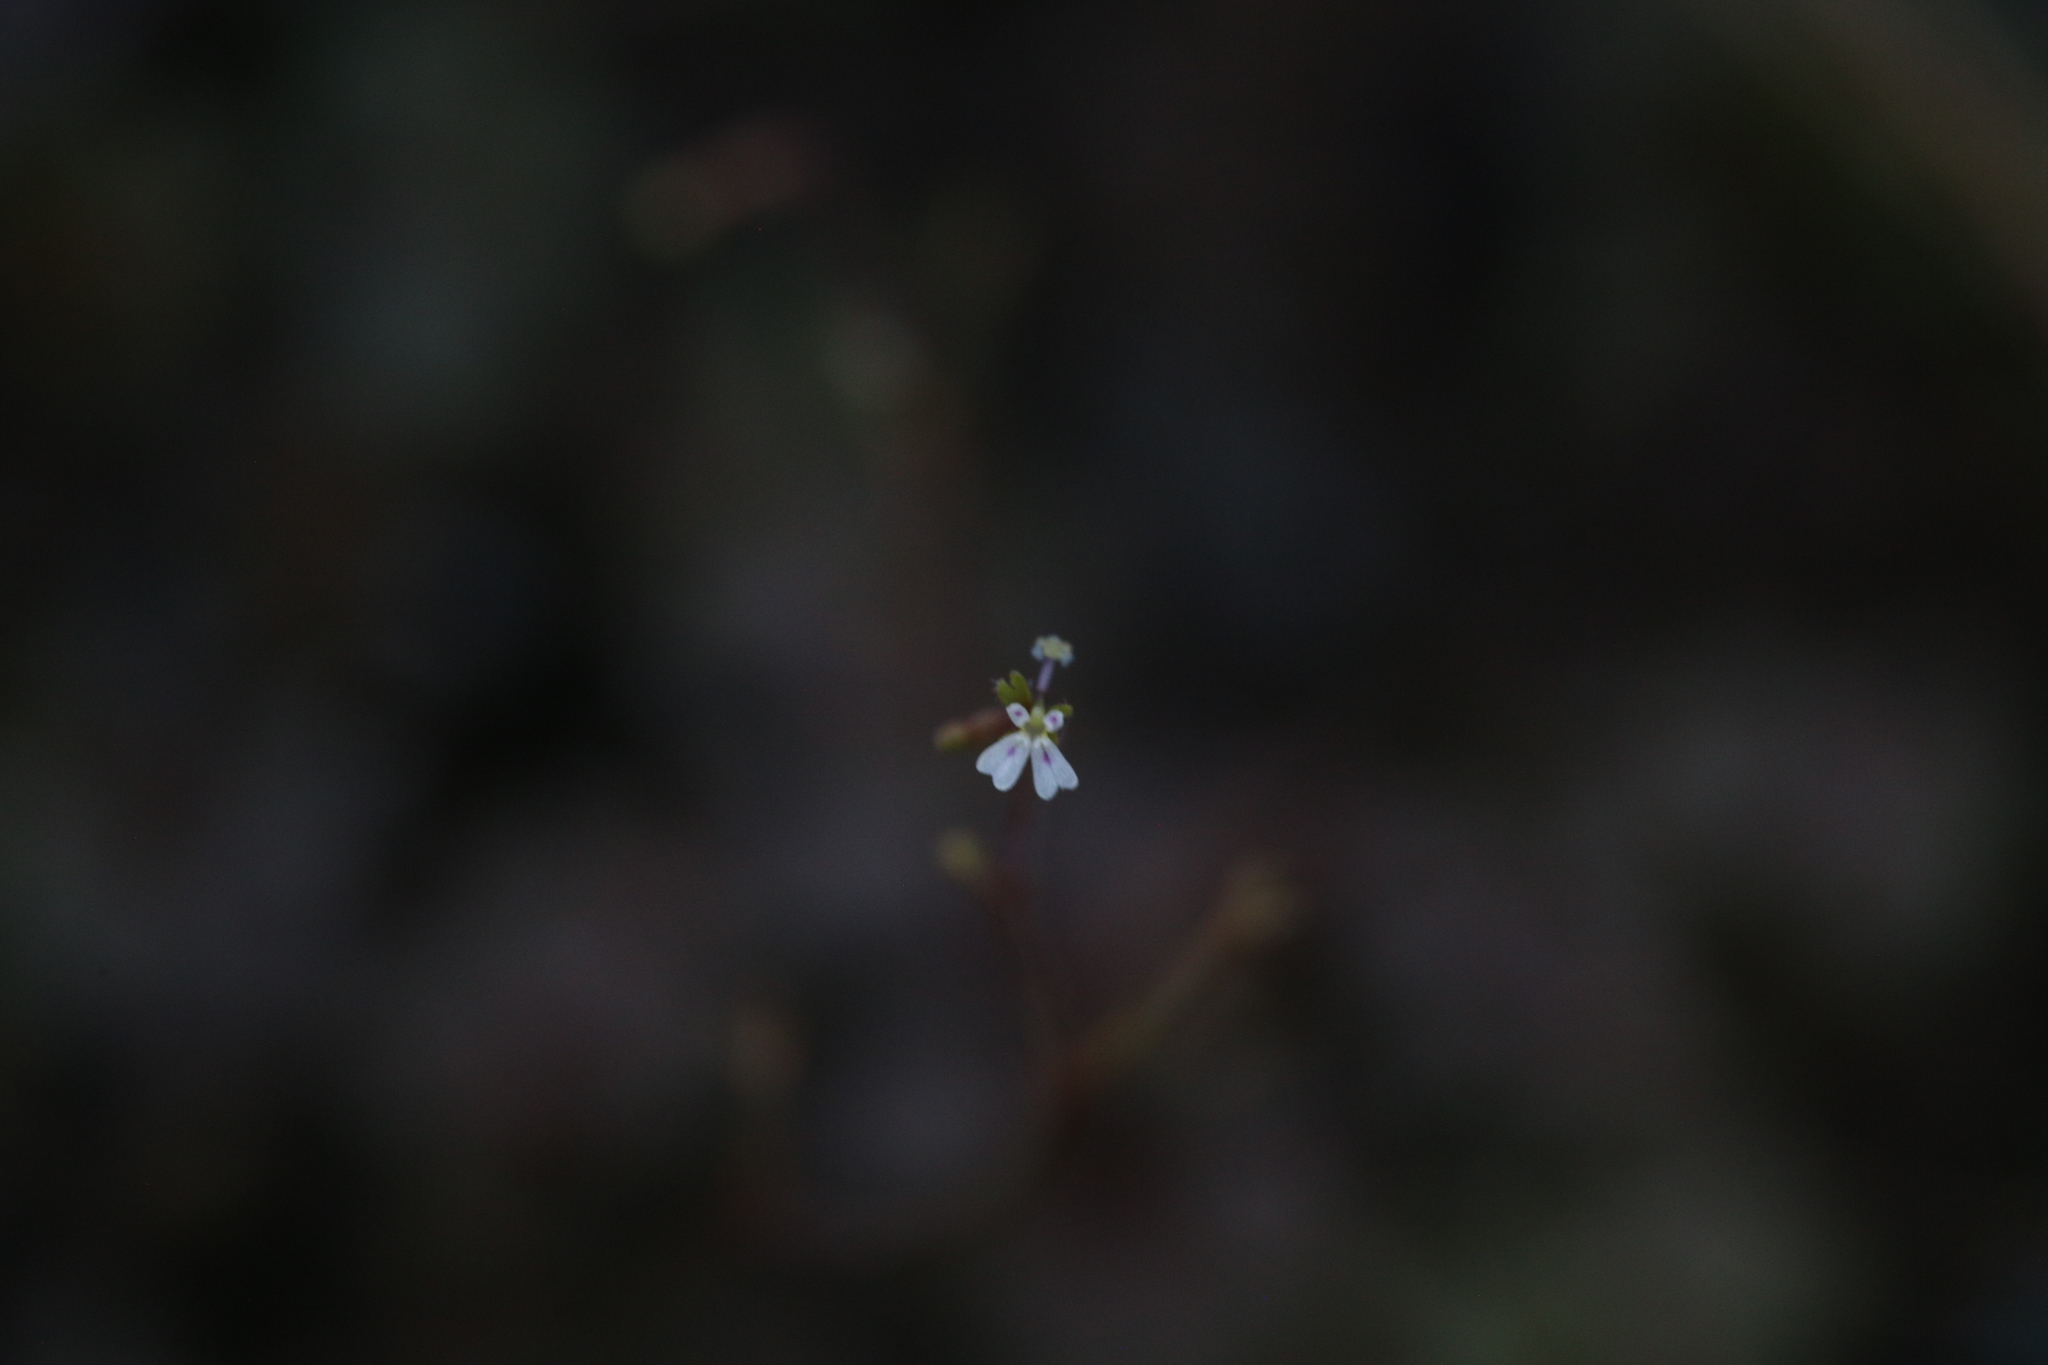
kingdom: Plantae
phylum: Tracheophyta
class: Magnoliopsida
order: Asterales
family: Stylidiaceae
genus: Stylidium
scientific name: Stylidium tenerum
